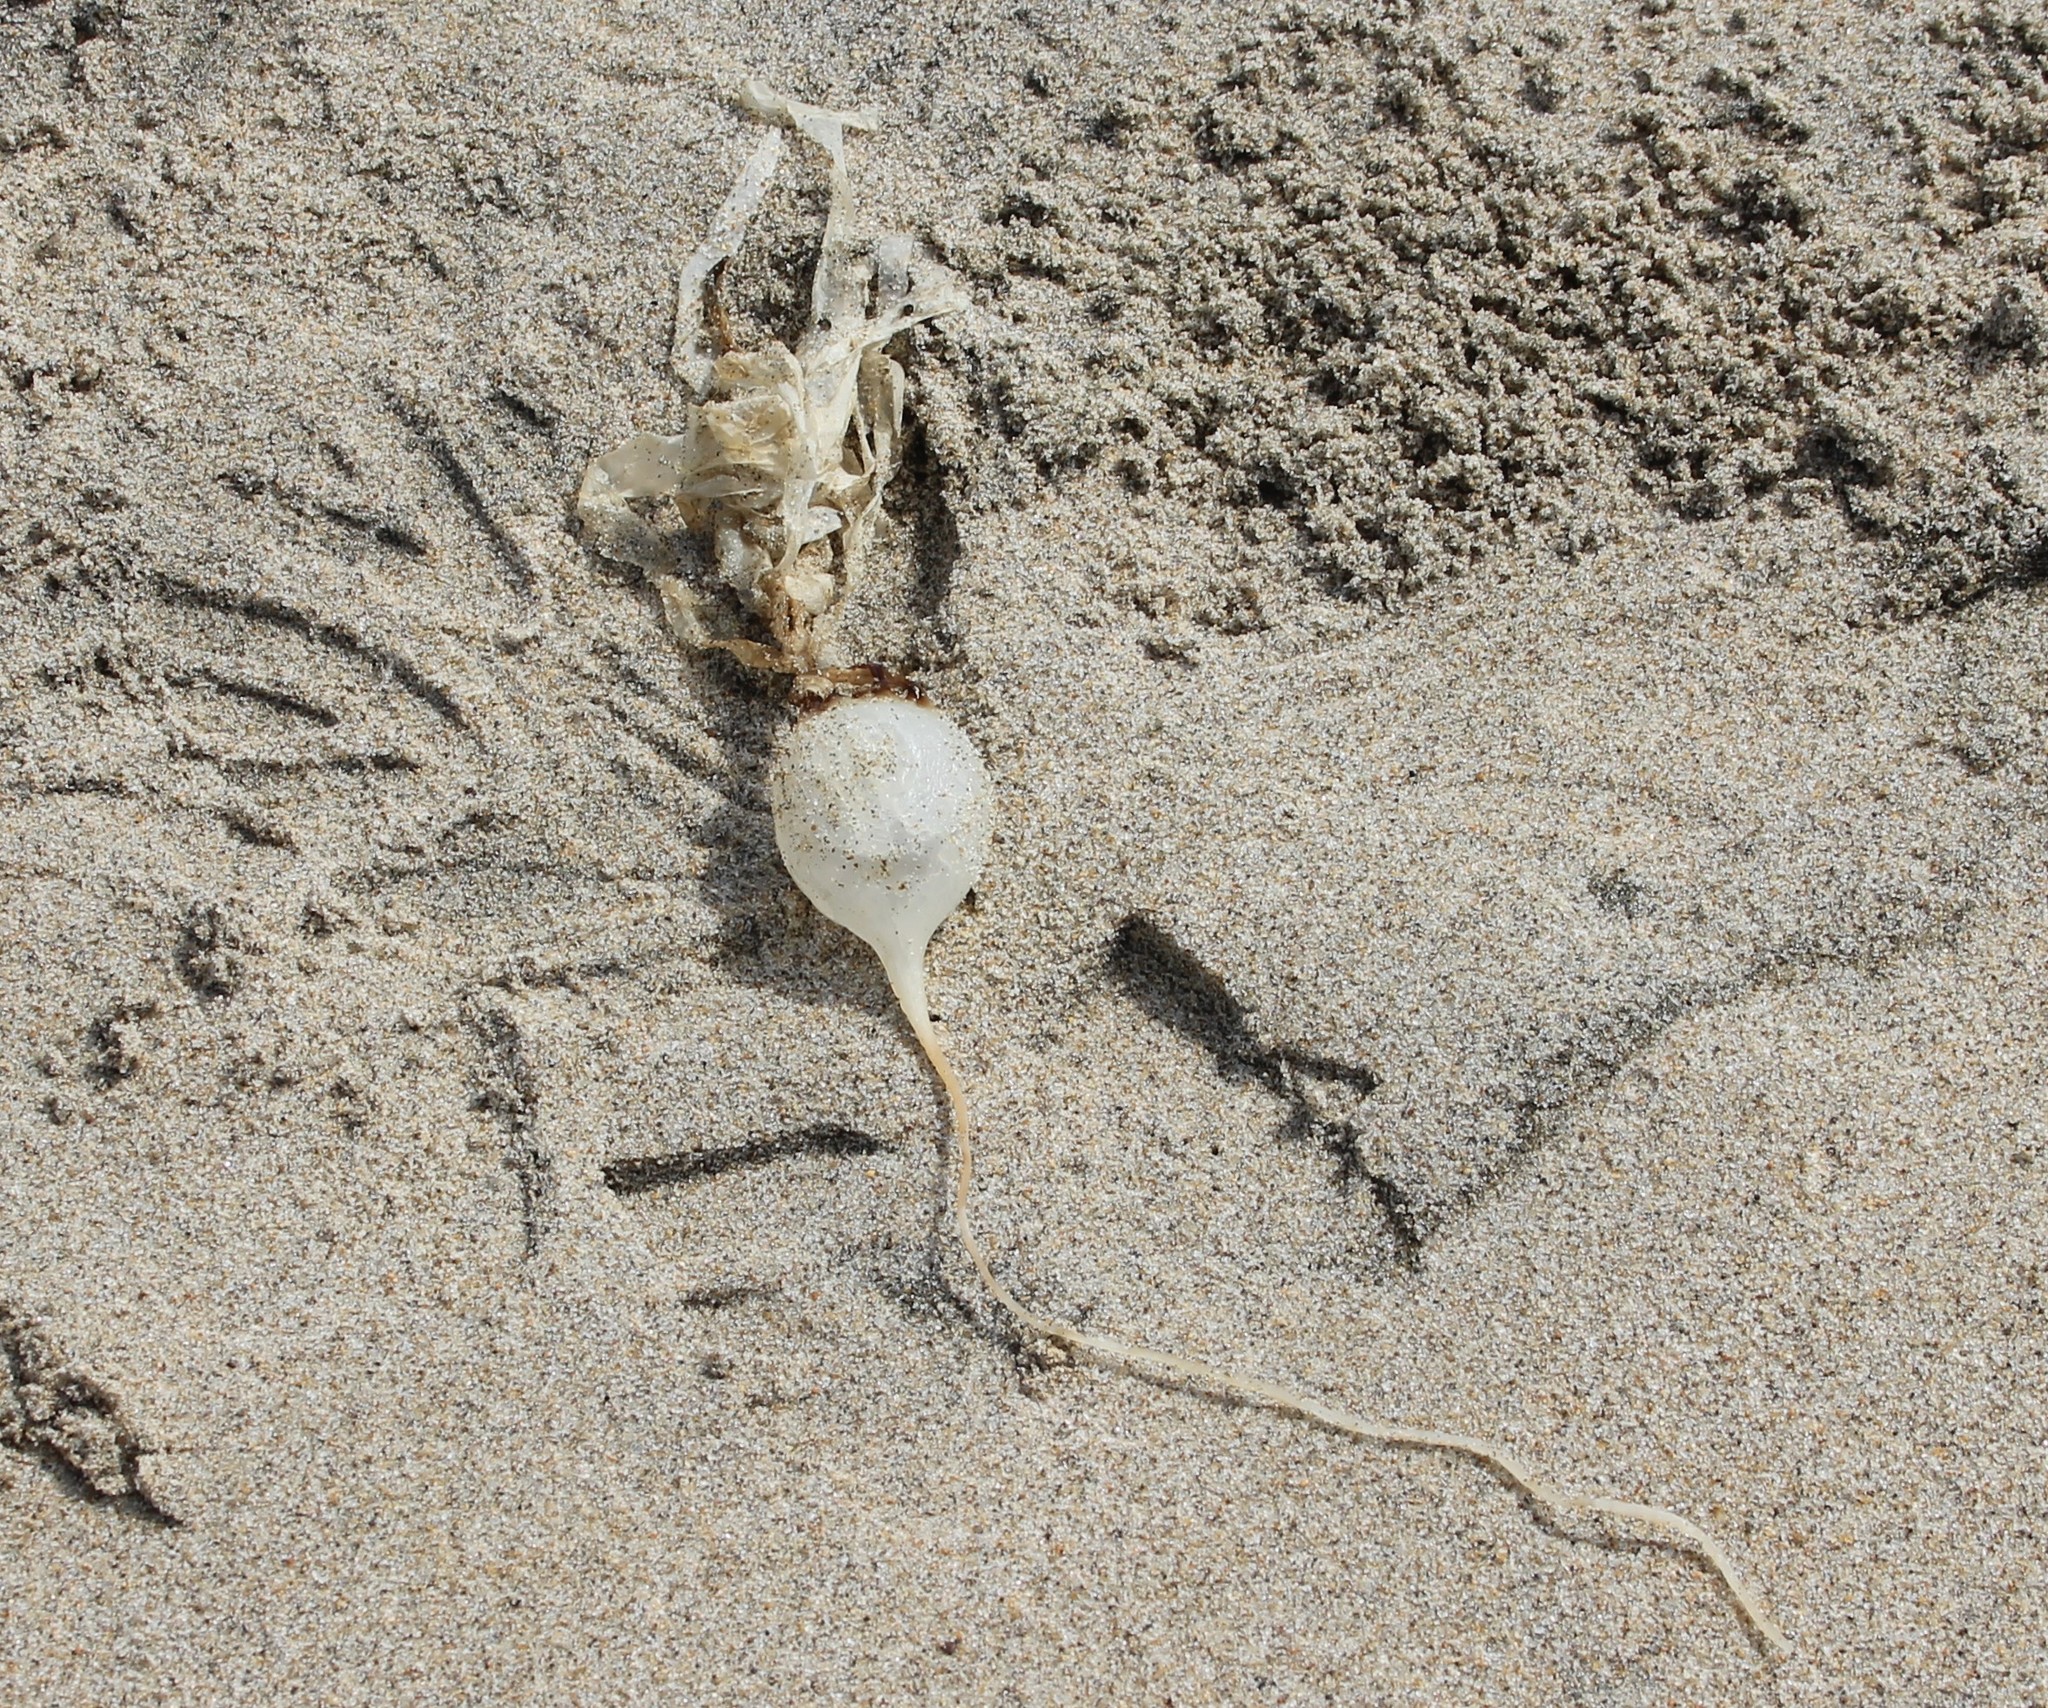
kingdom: Chromista
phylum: Ochrophyta
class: Phaeophyceae
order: Laminariales
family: Laminariaceae
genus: Nereocystis
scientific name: Nereocystis luetkeana
